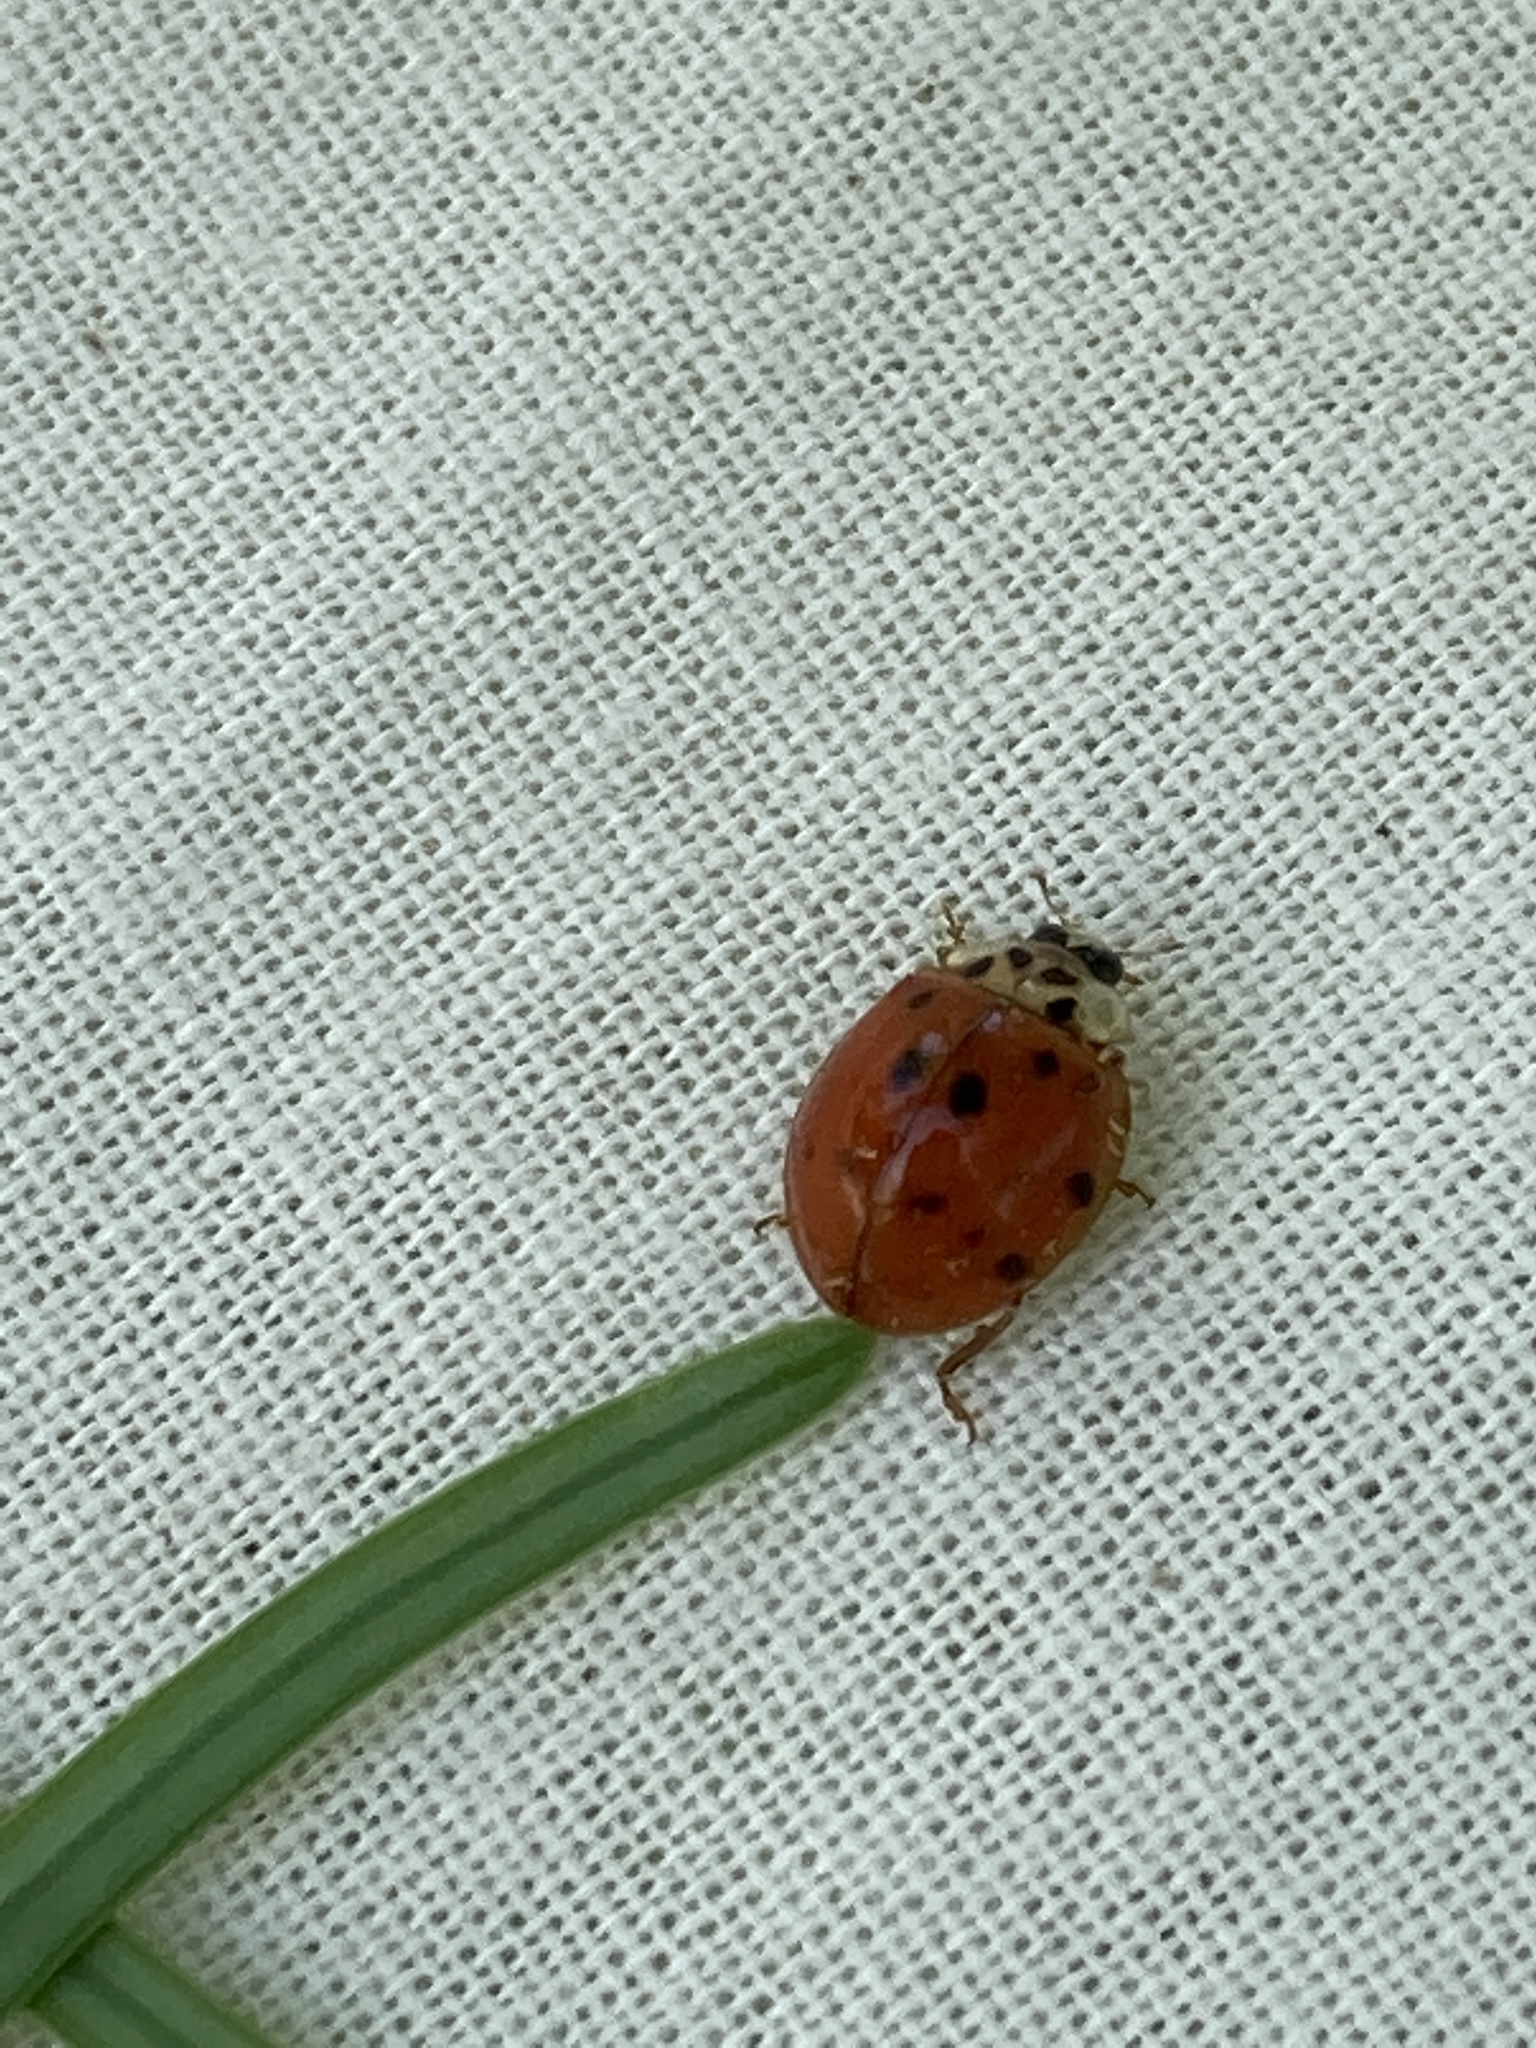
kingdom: Animalia
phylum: Arthropoda
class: Insecta
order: Coleoptera
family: Coccinellidae
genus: Harmonia
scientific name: Harmonia axyridis
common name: Harlequin ladybird
